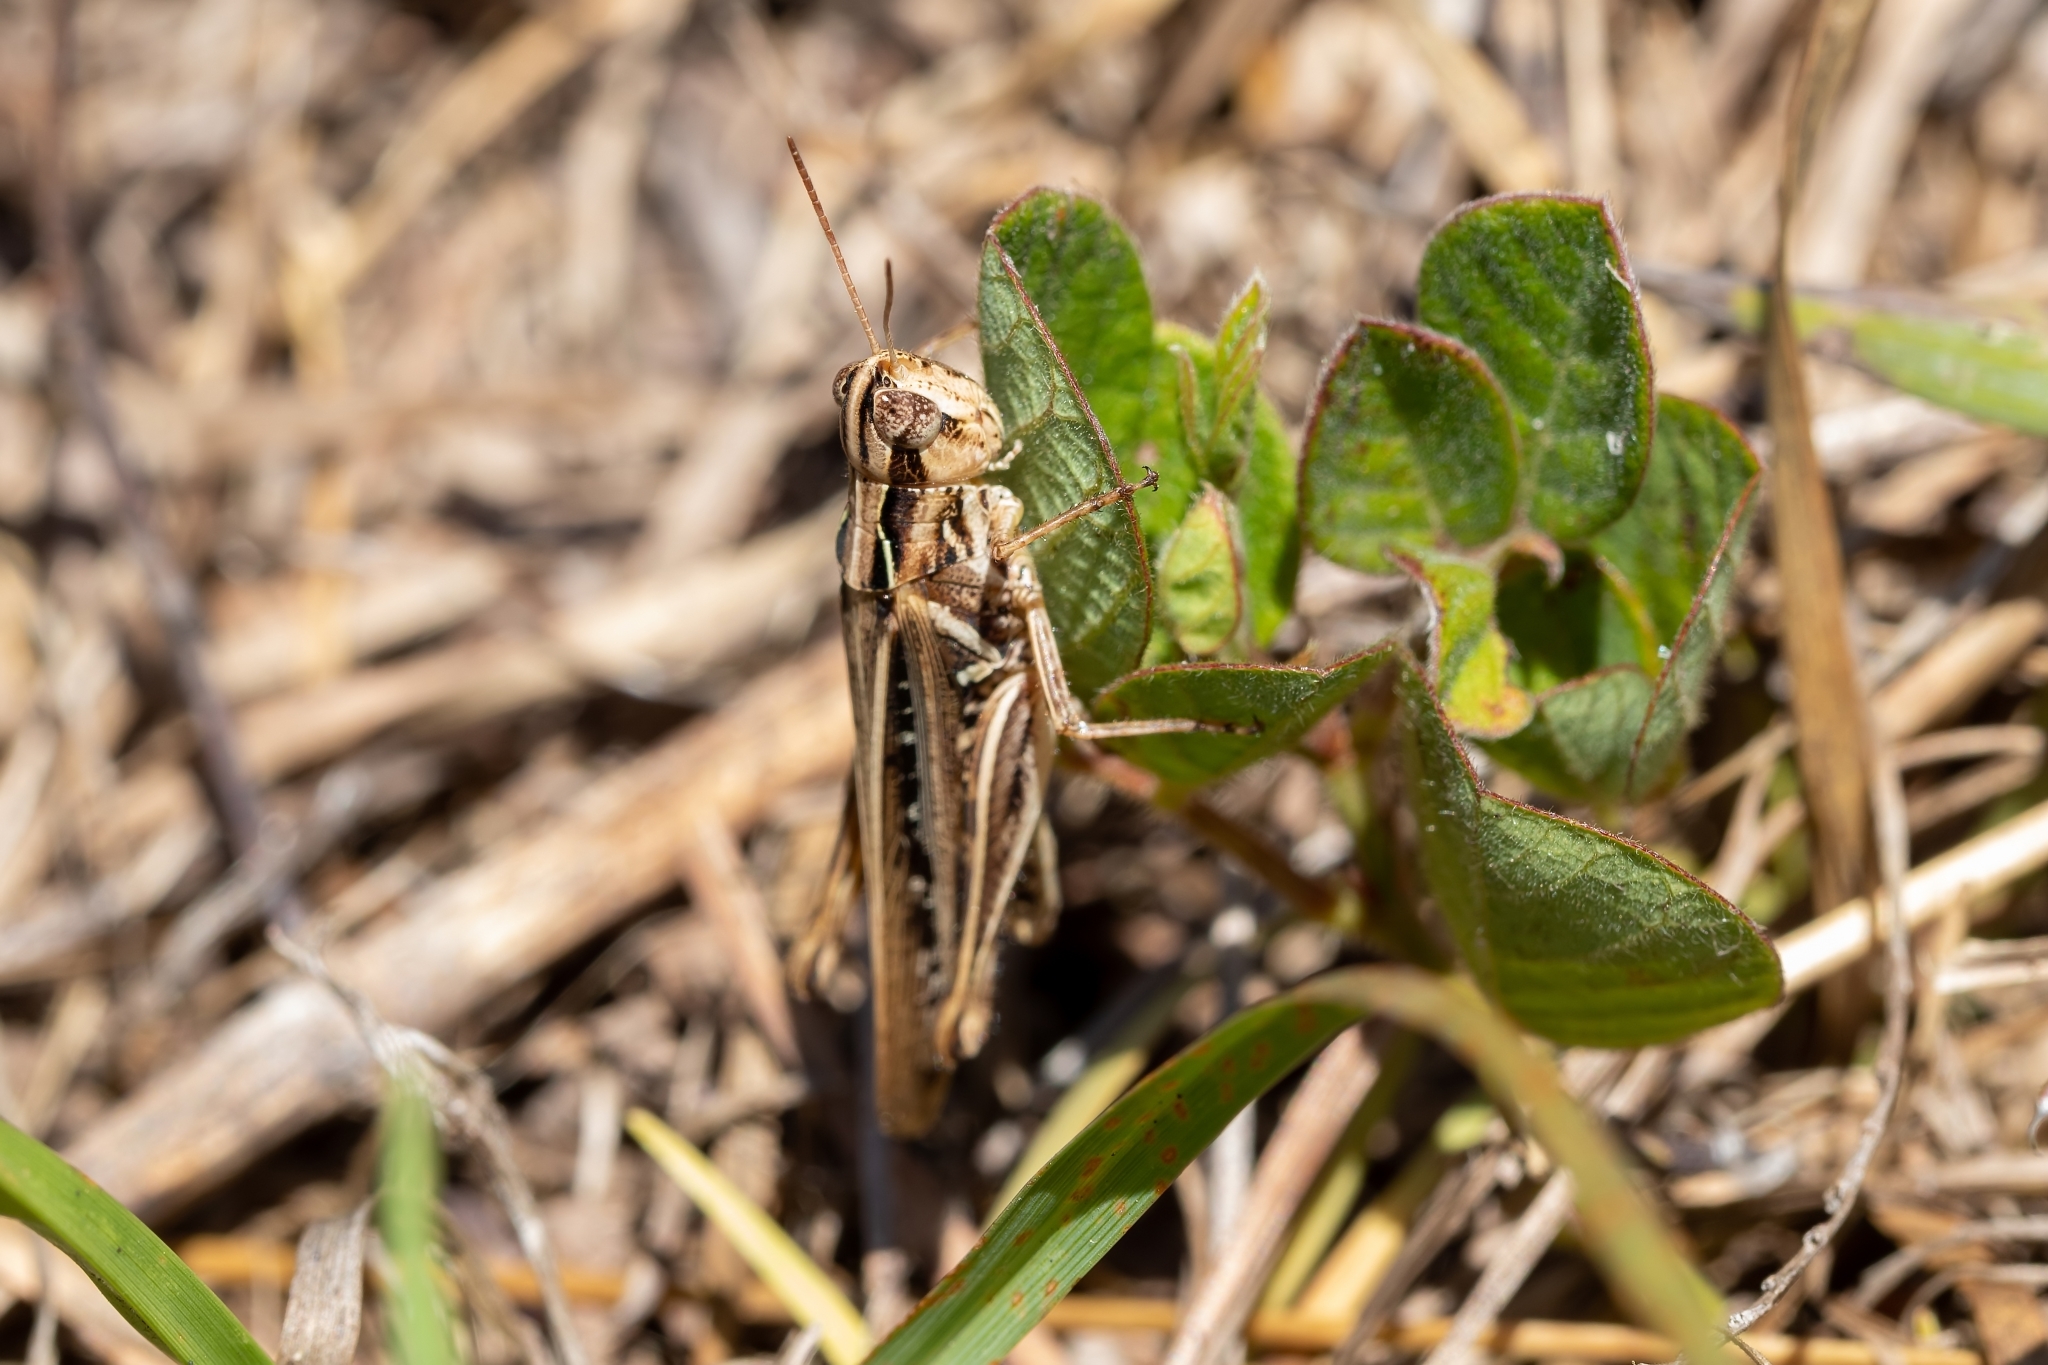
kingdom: Animalia
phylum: Arthropoda
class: Insecta
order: Orthoptera
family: Acrididae
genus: Orphulella
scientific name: Orphulella pelidna
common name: Spotted-wing grasshopper
